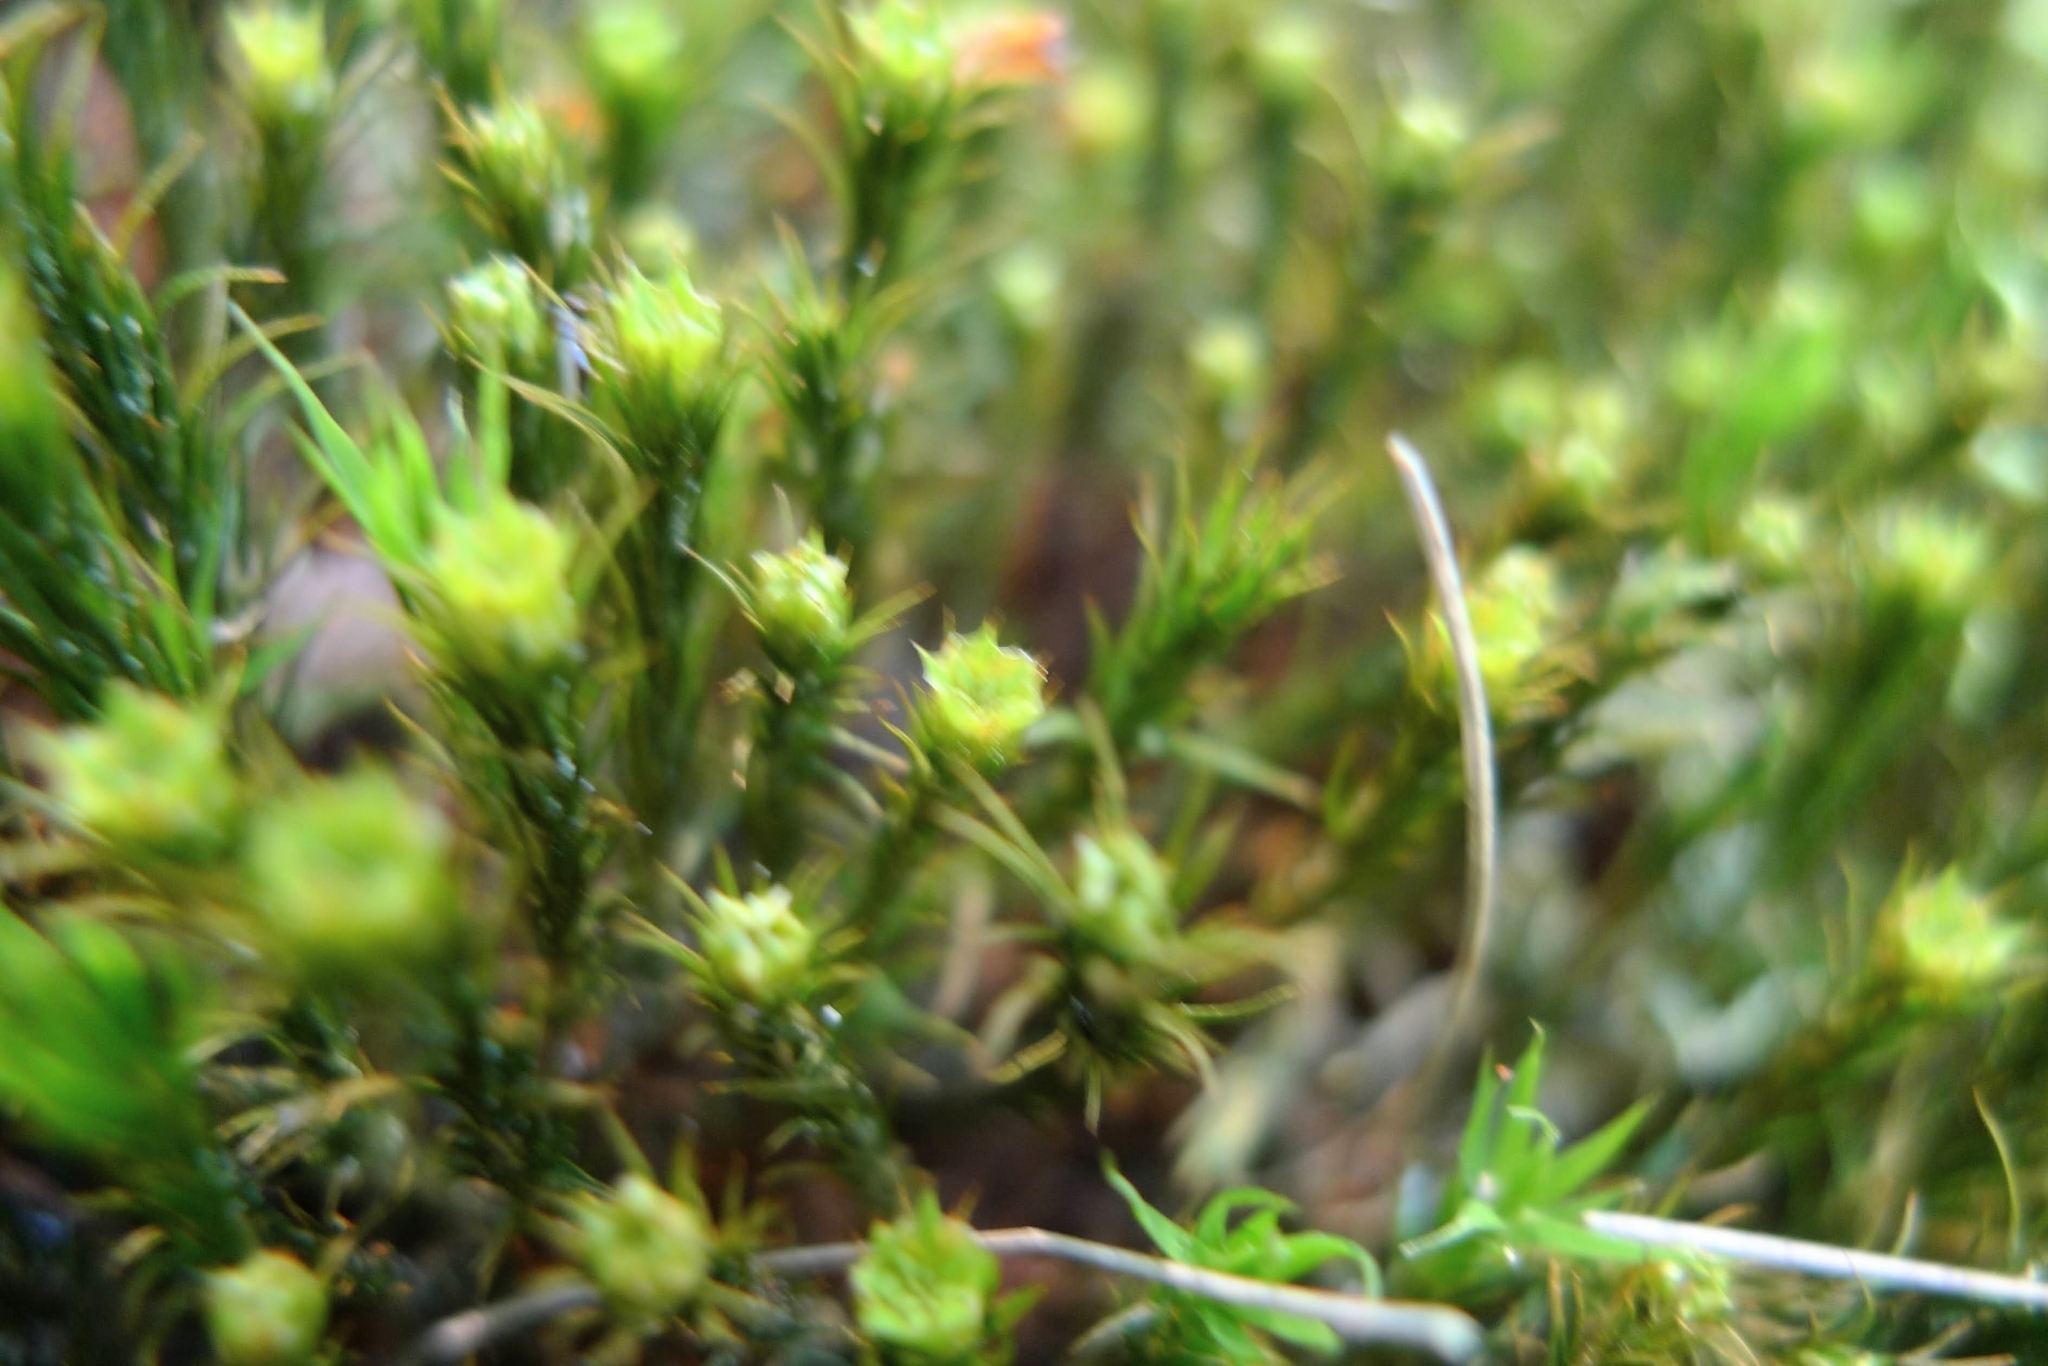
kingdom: Plantae
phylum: Bryophyta
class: Polytrichopsida
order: Polytrichales
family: Polytrichaceae
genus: Polytrichum
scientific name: Polytrichum formosum
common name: Bank haircap moss
